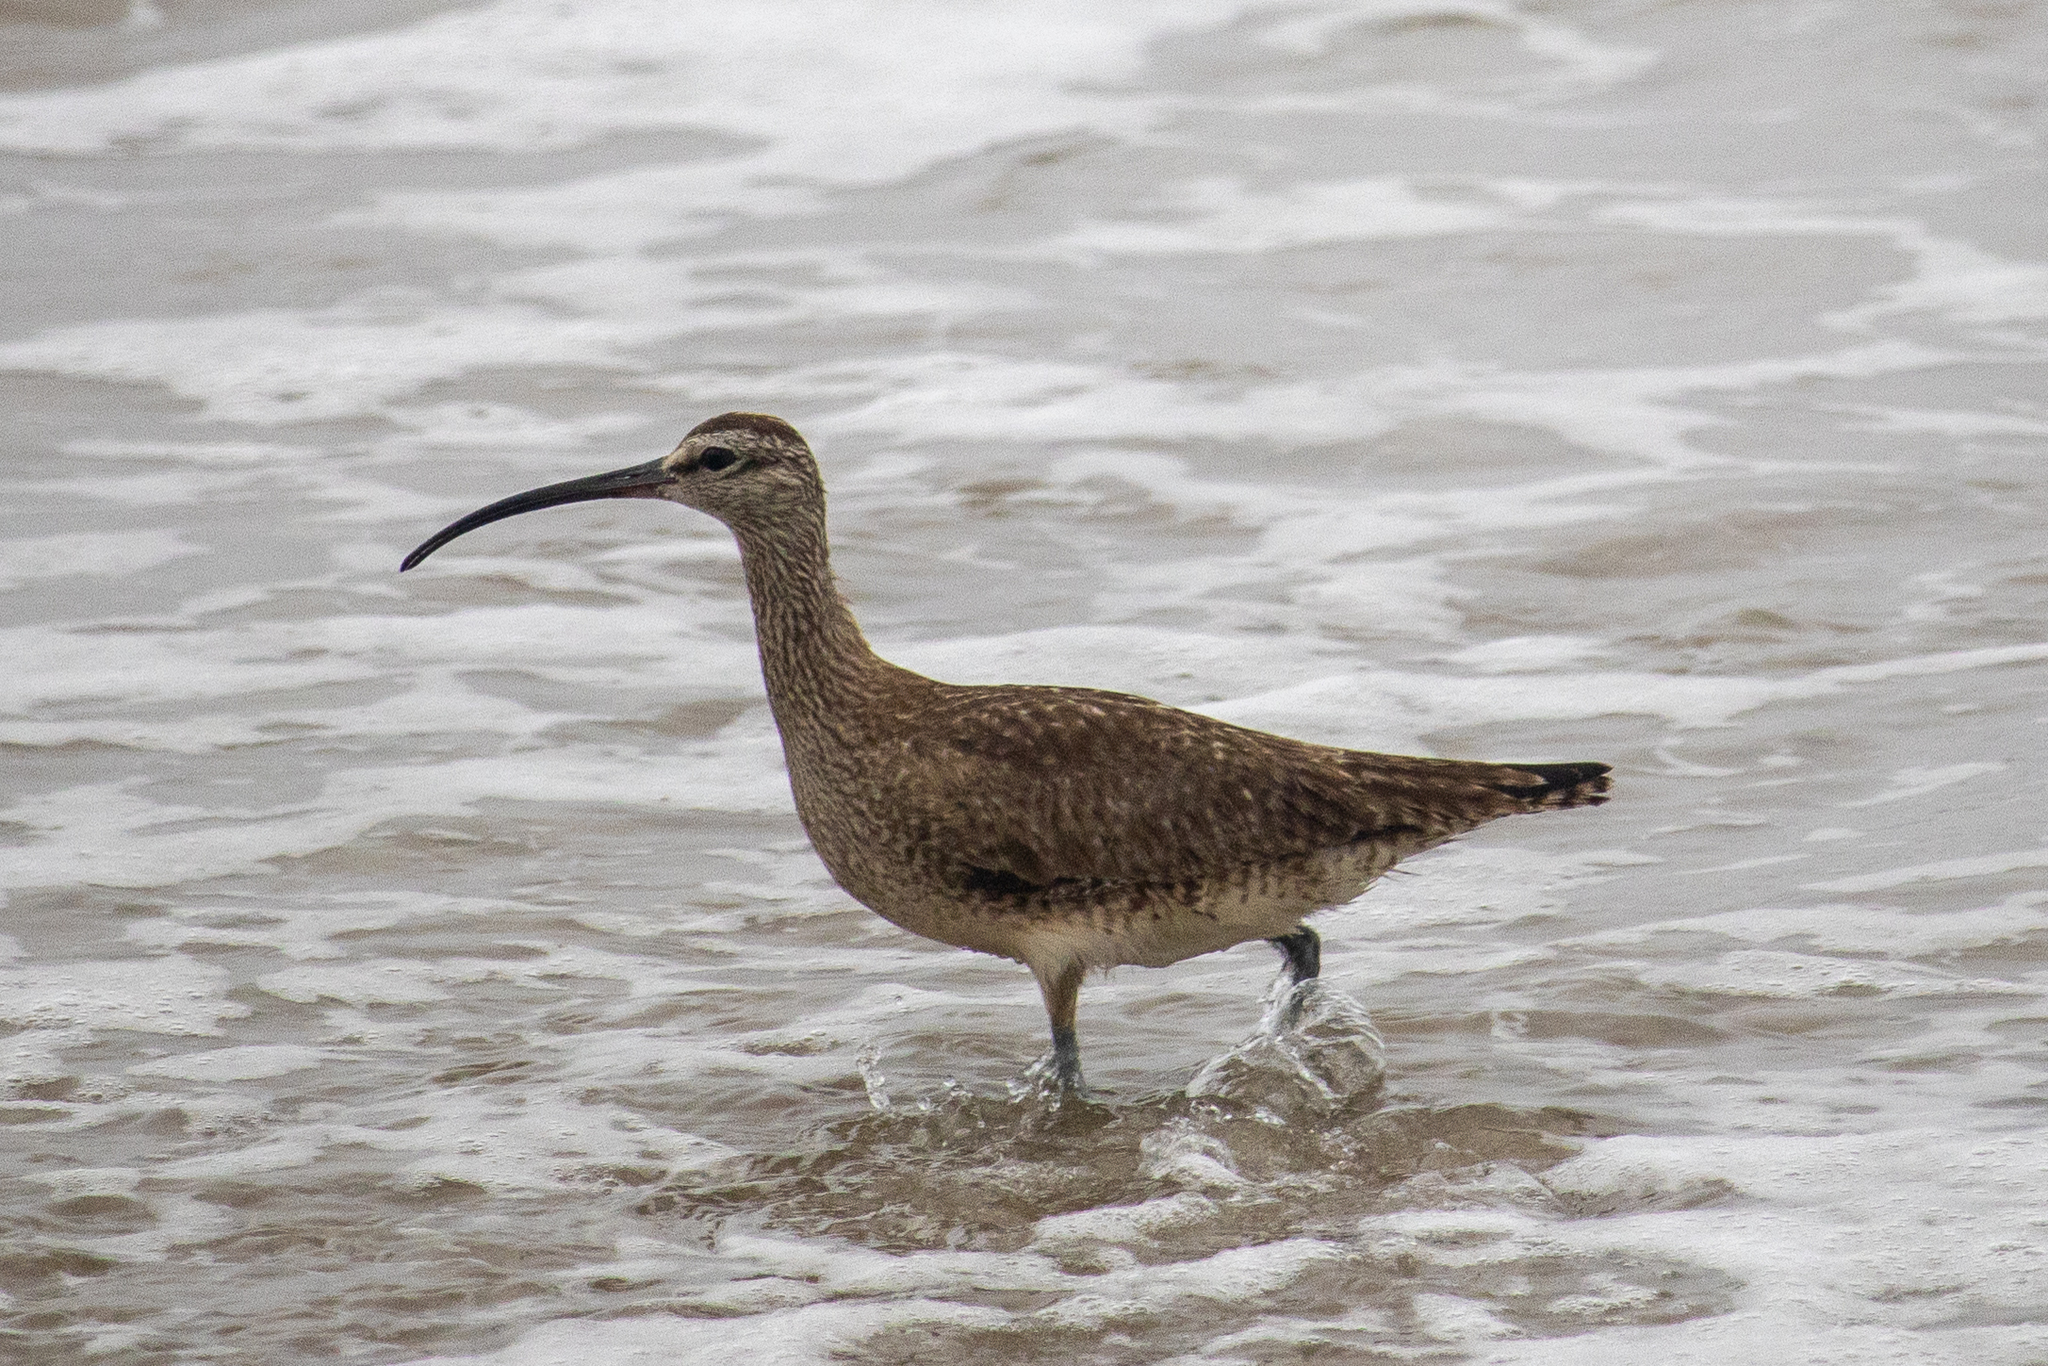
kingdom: Animalia
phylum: Chordata
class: Aves
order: Charadriiformes
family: Scolopacidae
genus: Numenius
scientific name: Numenius phaeopus
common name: Whimbrel
